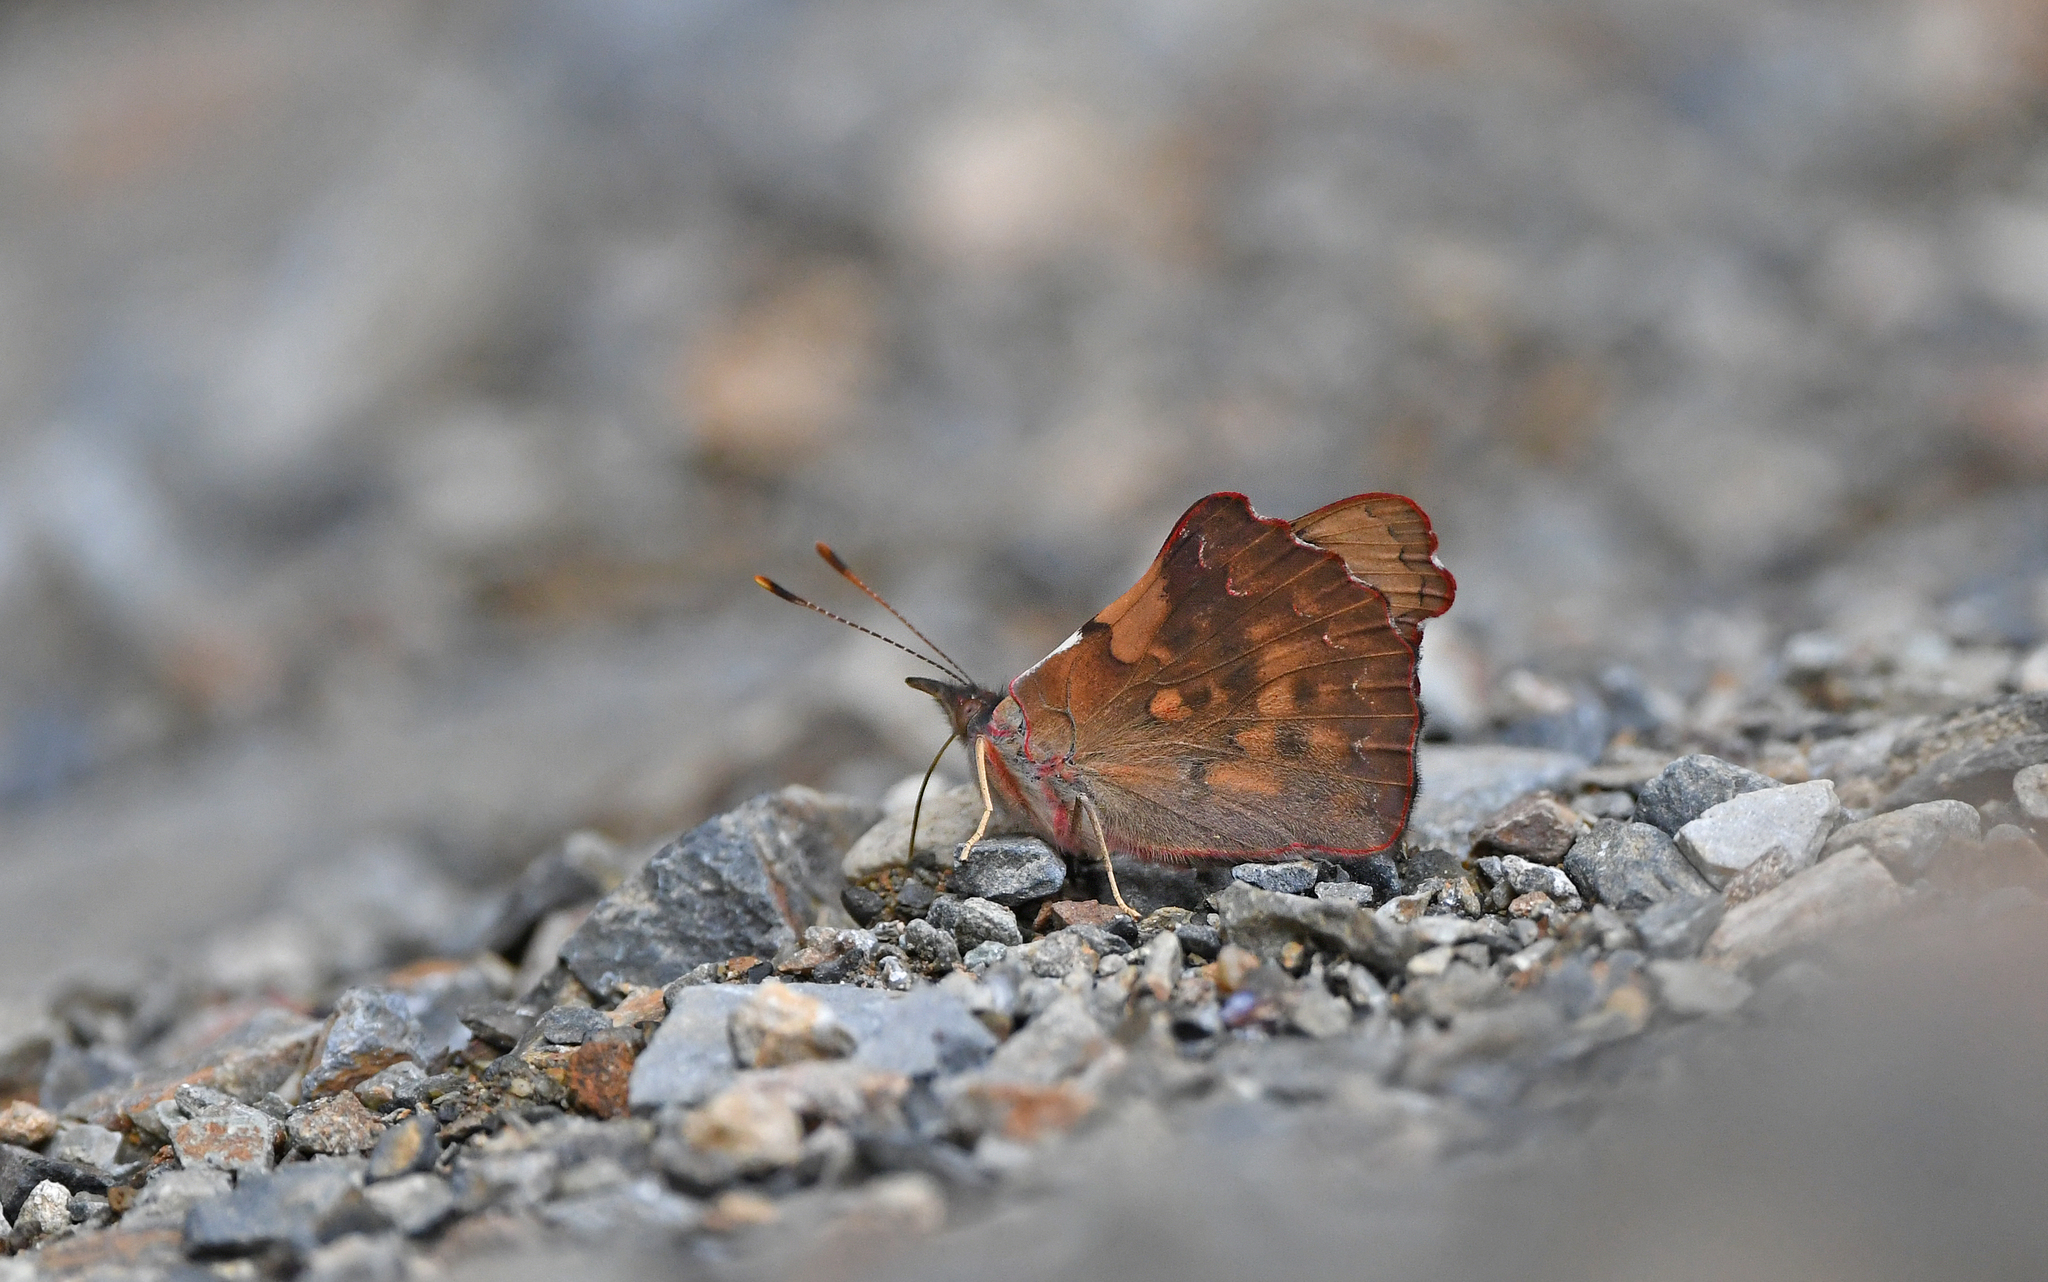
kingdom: Animalia
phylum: Arthropoda
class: Insecta
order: Lepidoptera
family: Nymphalidae
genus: Perisama
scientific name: Perisama diotima
